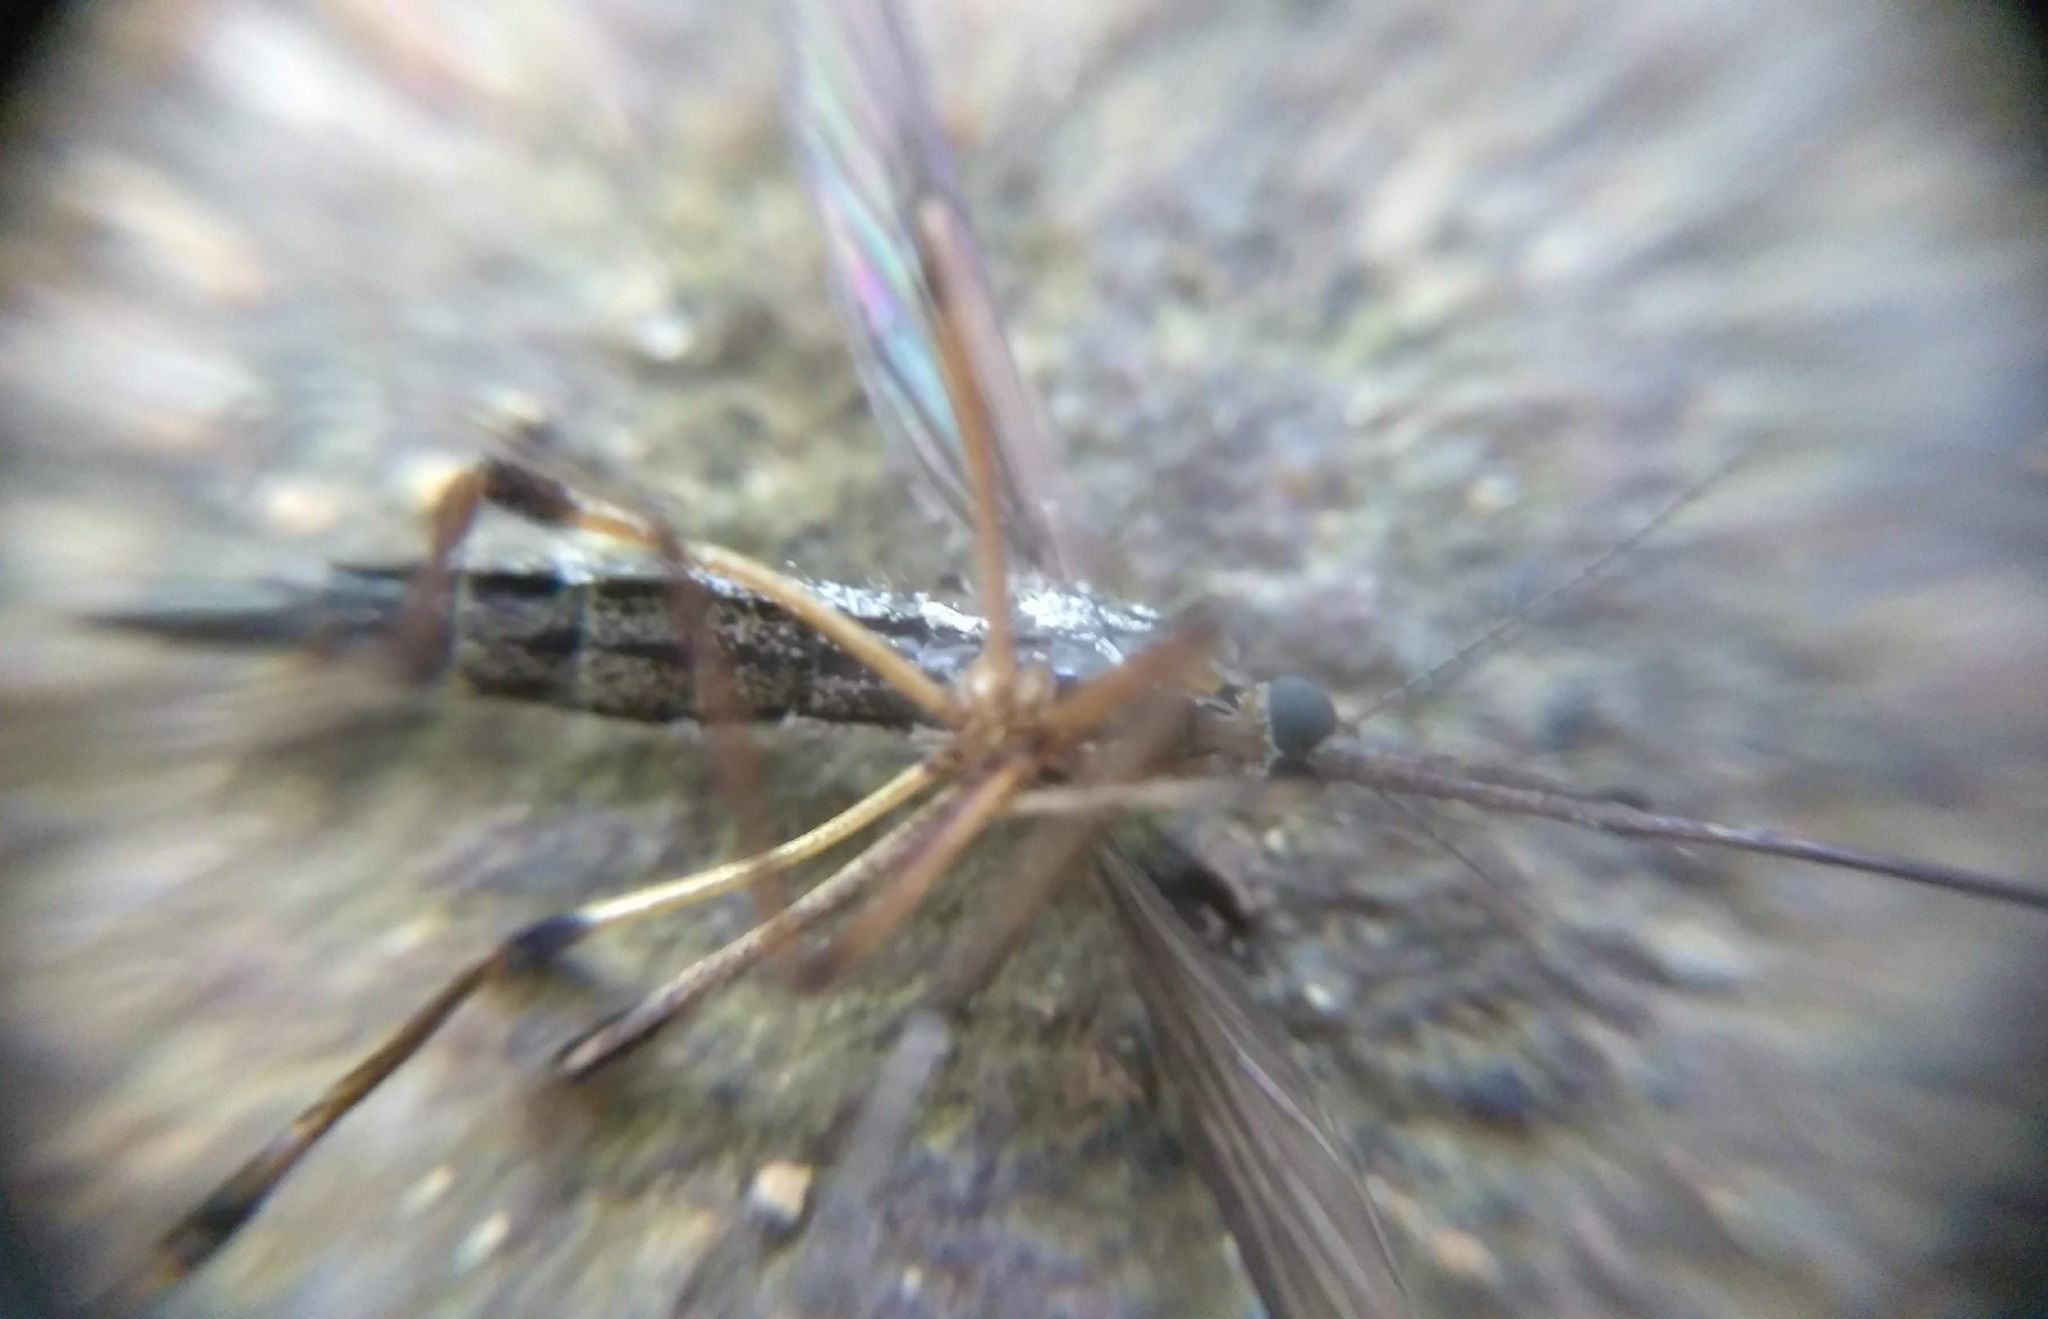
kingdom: Animalia
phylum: Arthropoda
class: Insecta
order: Diptera
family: Culicidae
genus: Psorophora
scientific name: Psorophora howardii
